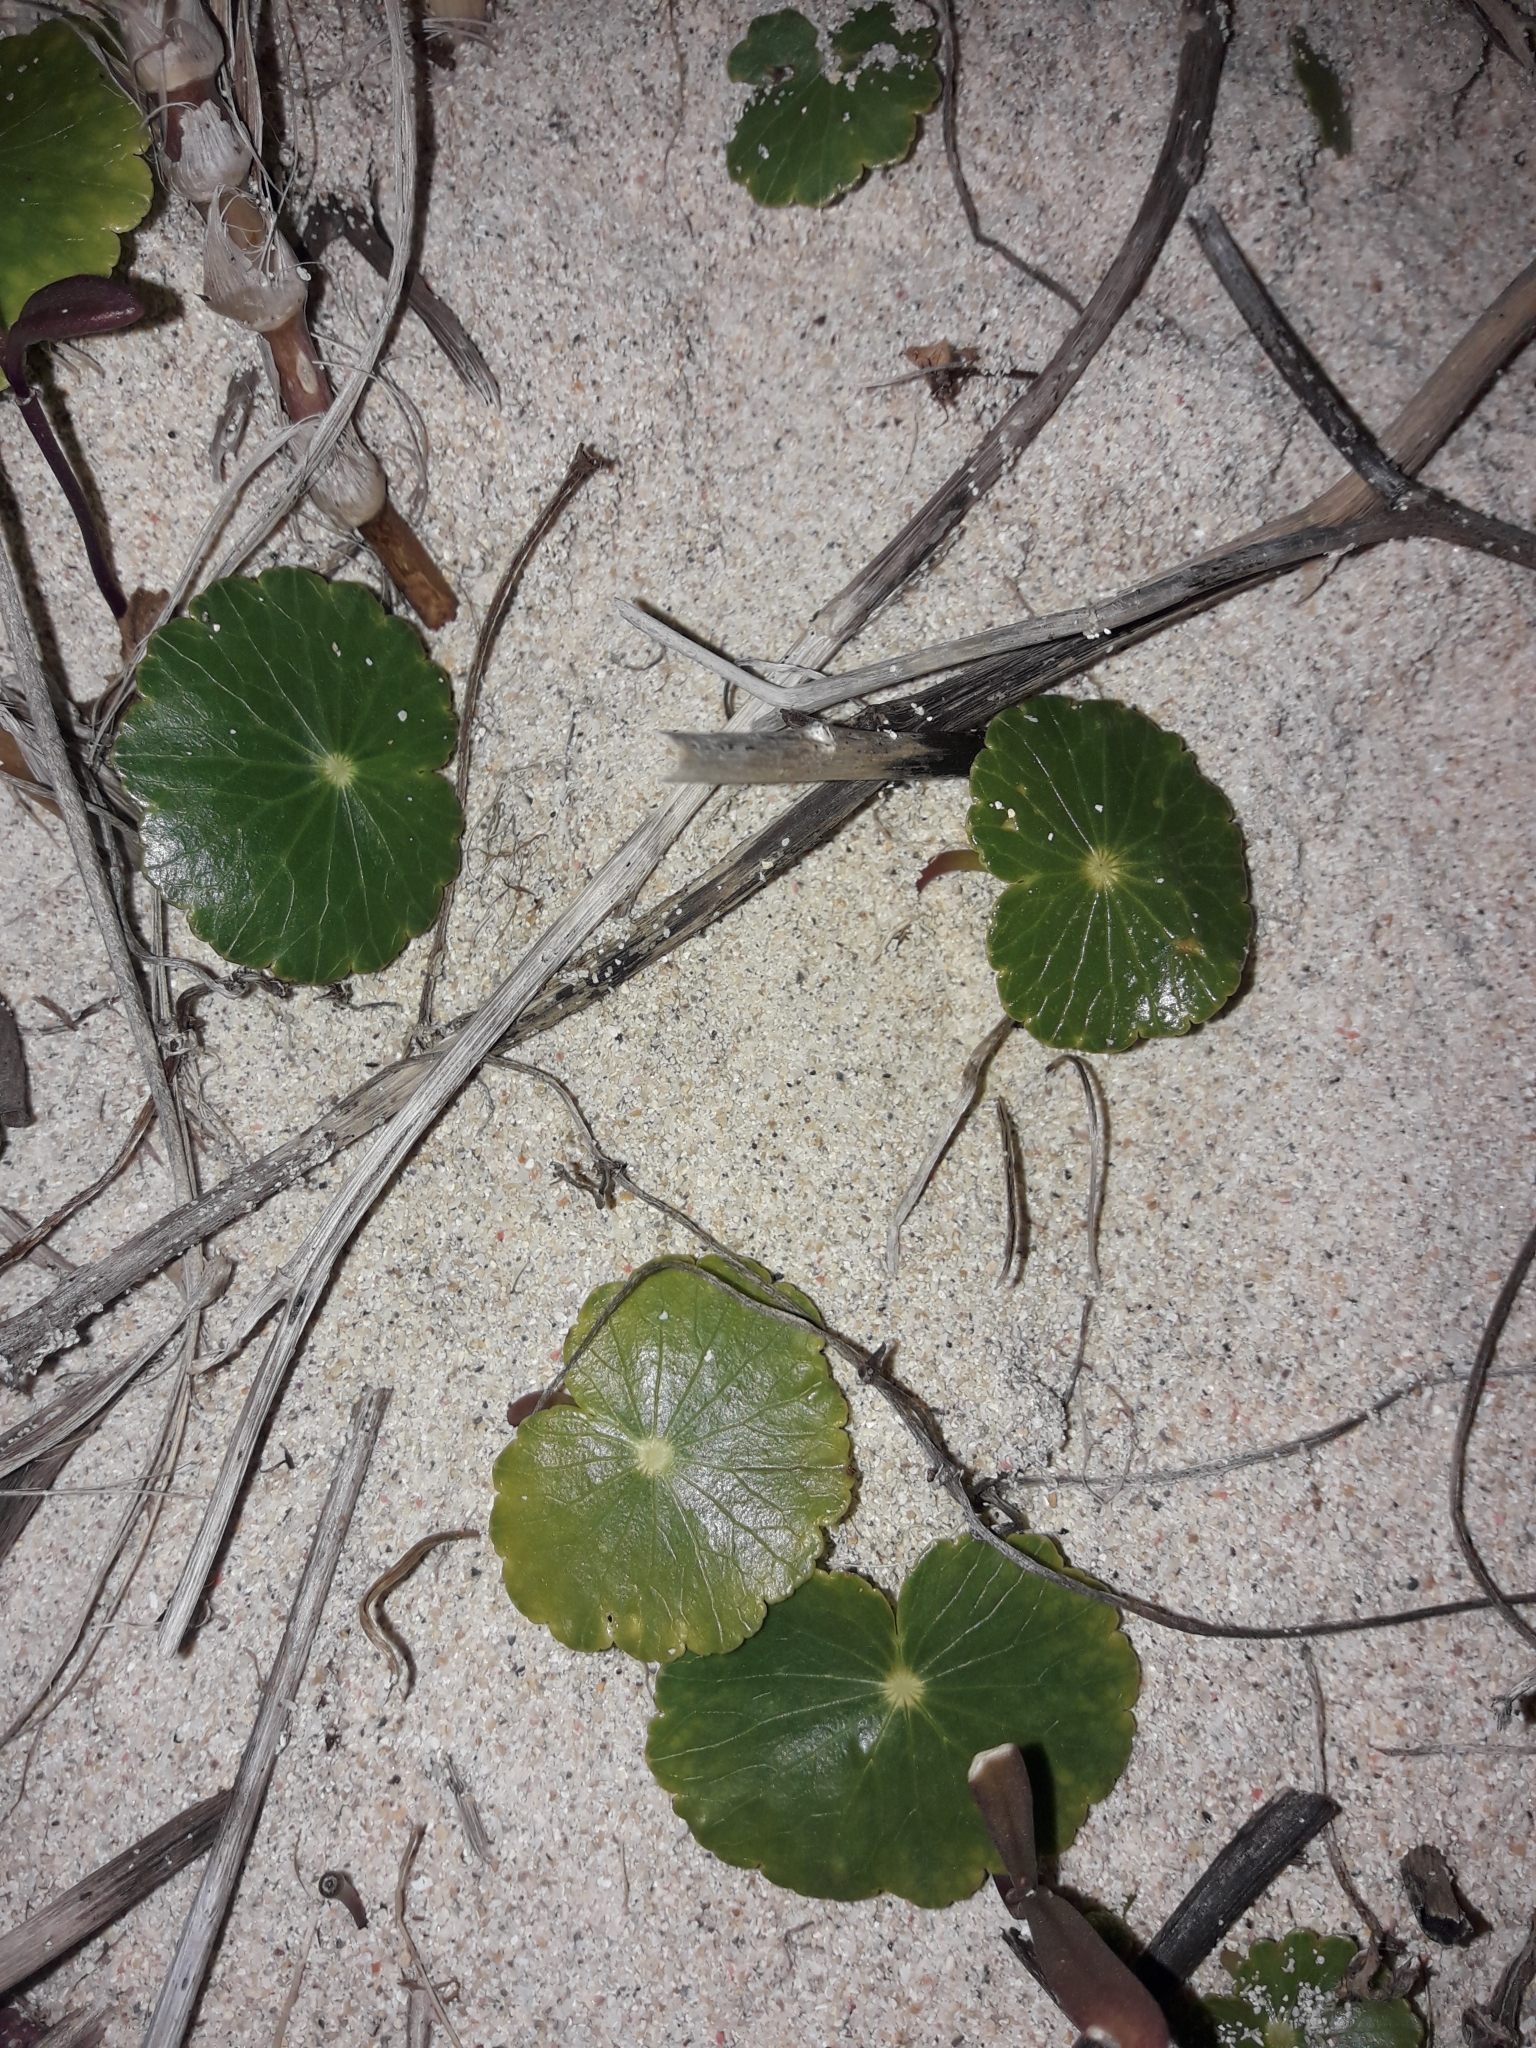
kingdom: Plantae
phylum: Tracheophyta
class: Magnoliopsida
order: Apiales
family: Araliaceae
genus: Hydrocotyle
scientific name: Hydrocotyle bonariensis
